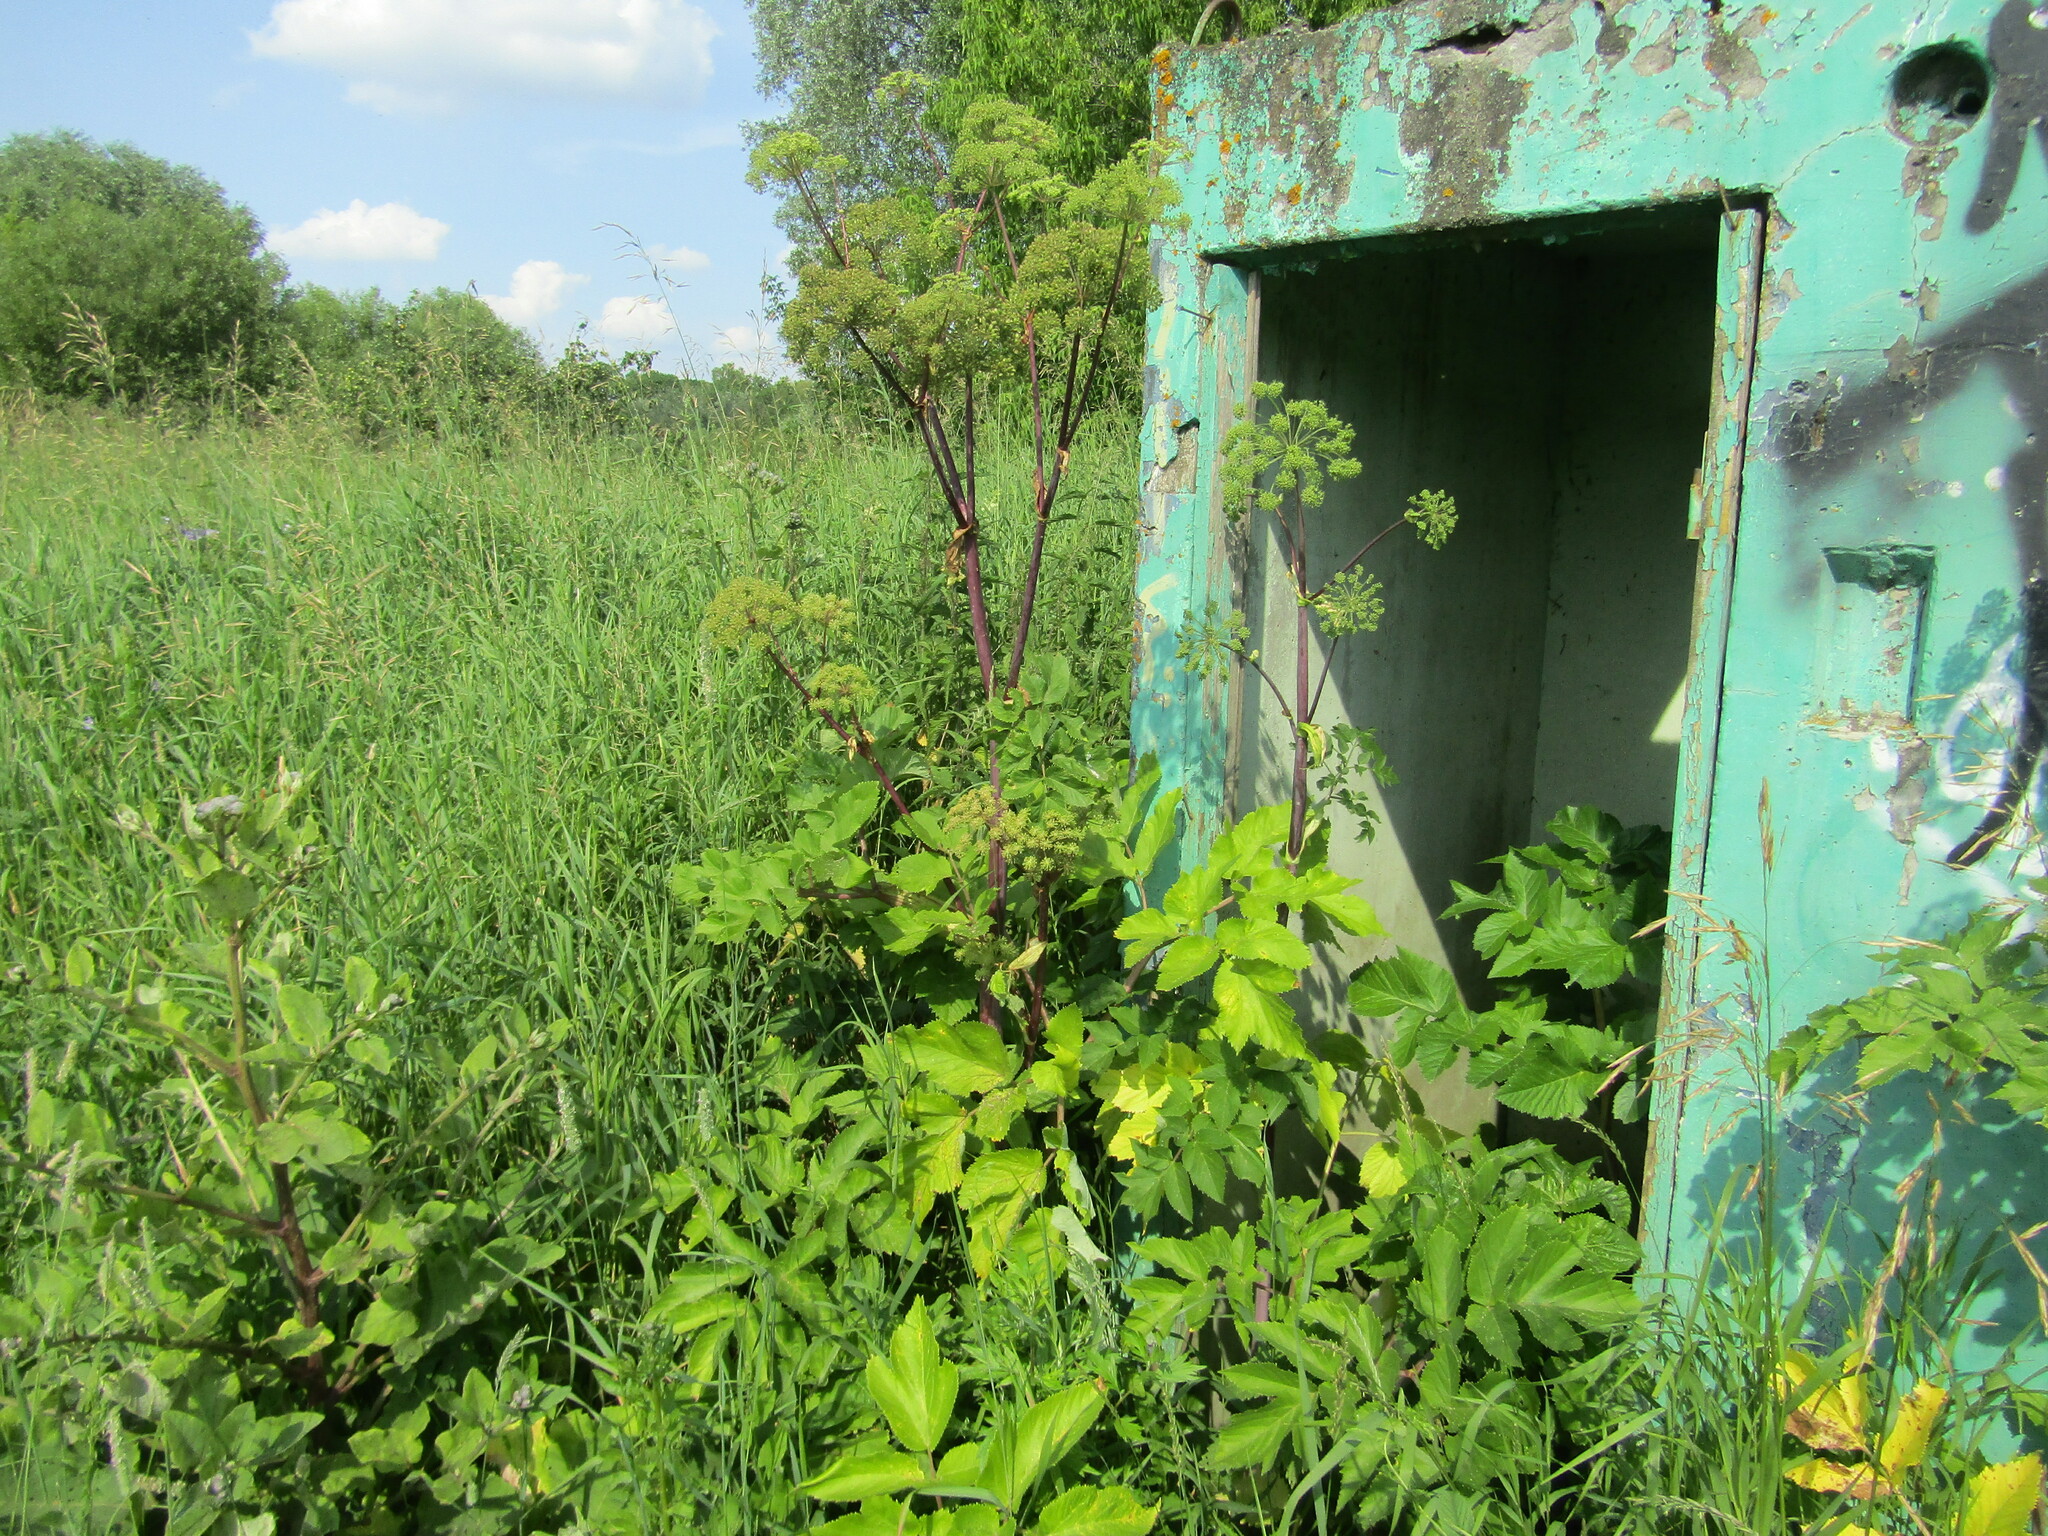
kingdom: Plantae
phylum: Tracheophyta
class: Magnoliopsida
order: Apiales
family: Apiaceae
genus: Angelica
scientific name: Angelica archangelica
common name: Garden angelica
